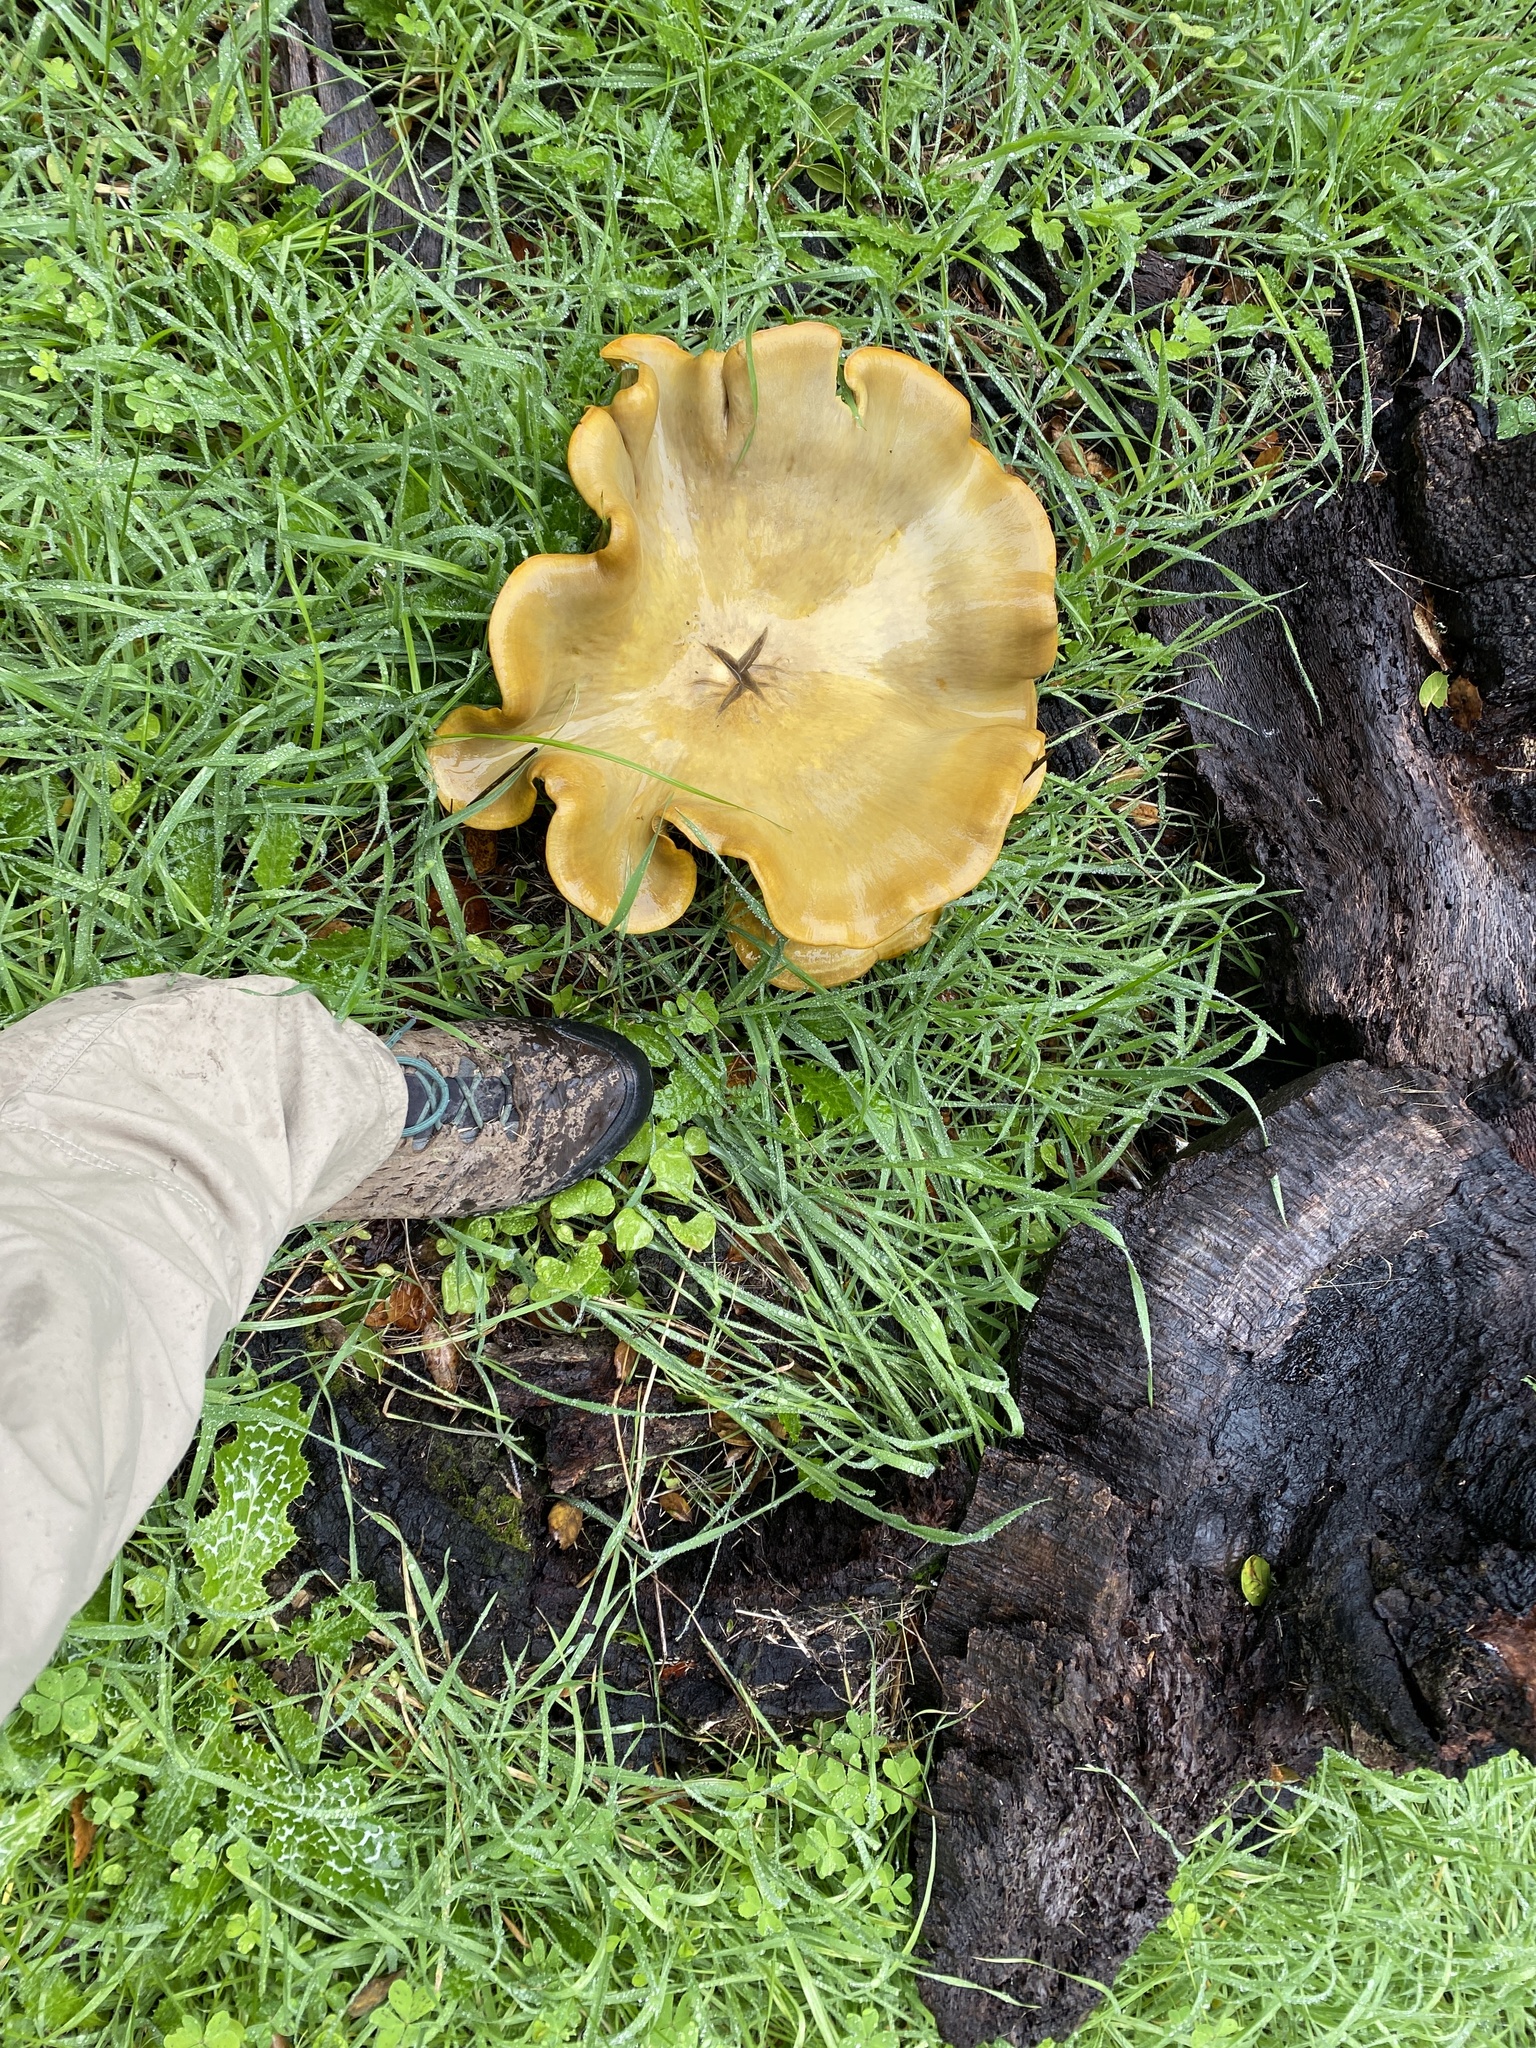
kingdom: Fungi
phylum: Basidiomycota
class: Agaricomycetes
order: Agaricales
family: Omphalotaceae
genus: Omphalotus
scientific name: Omphalotus olivascens
